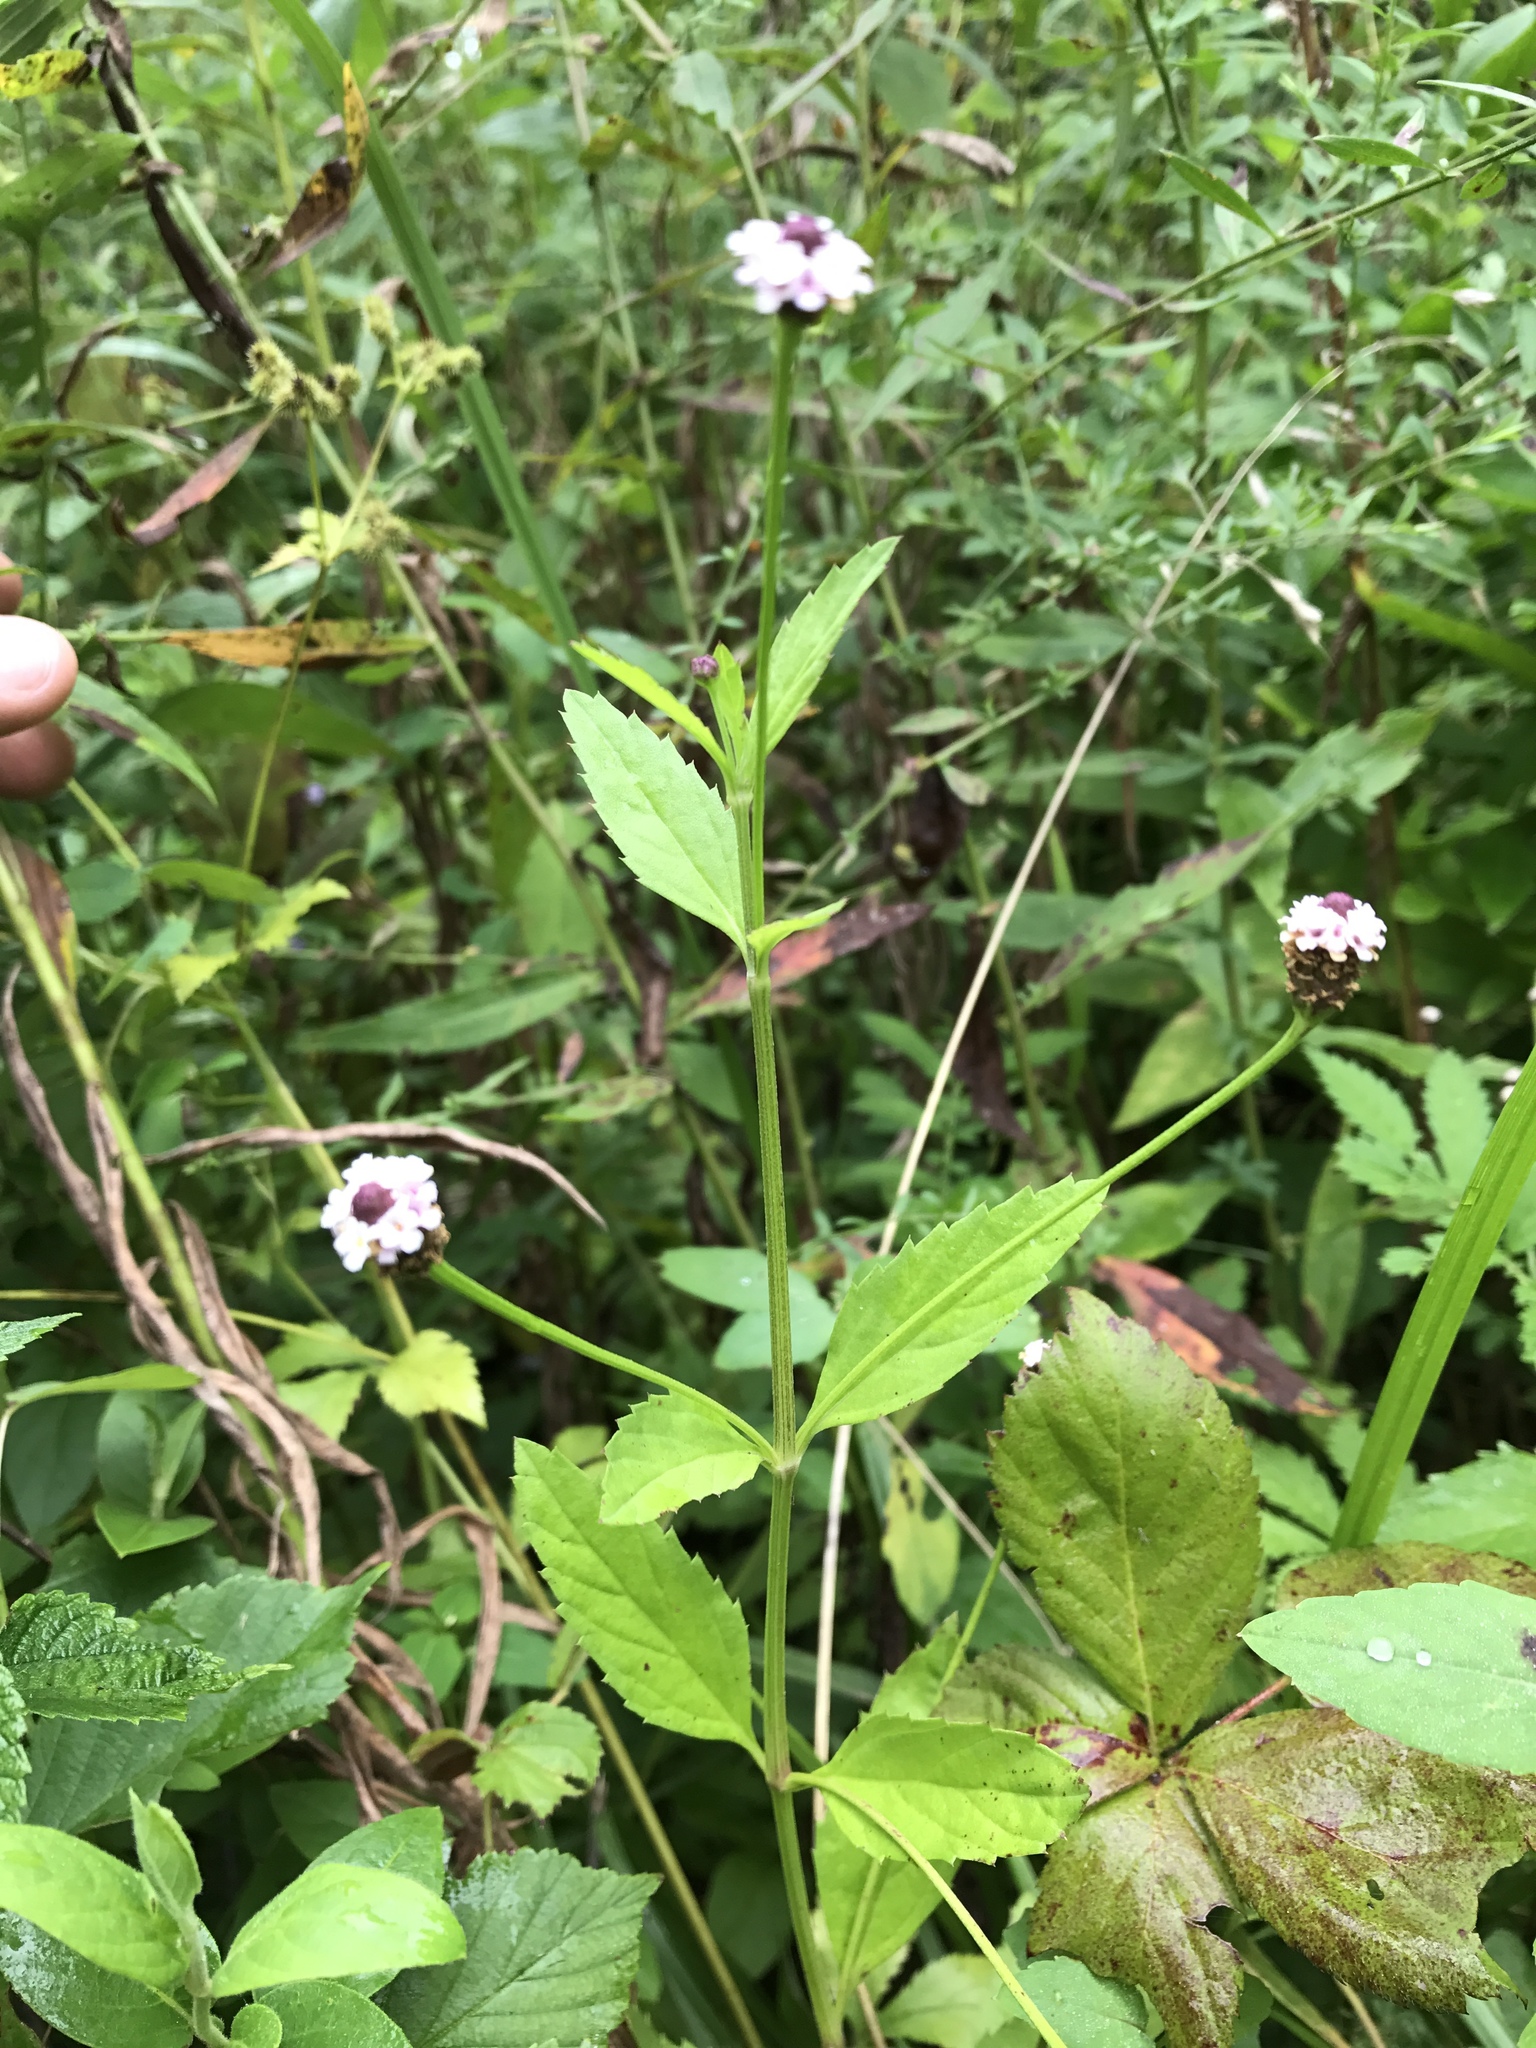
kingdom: Plantae
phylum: Tracheophyta
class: Magnoliopsida
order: Lamiales
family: Verbenaceae
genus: Phyla
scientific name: Phyla lanceolata
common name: Northern fogfruit
